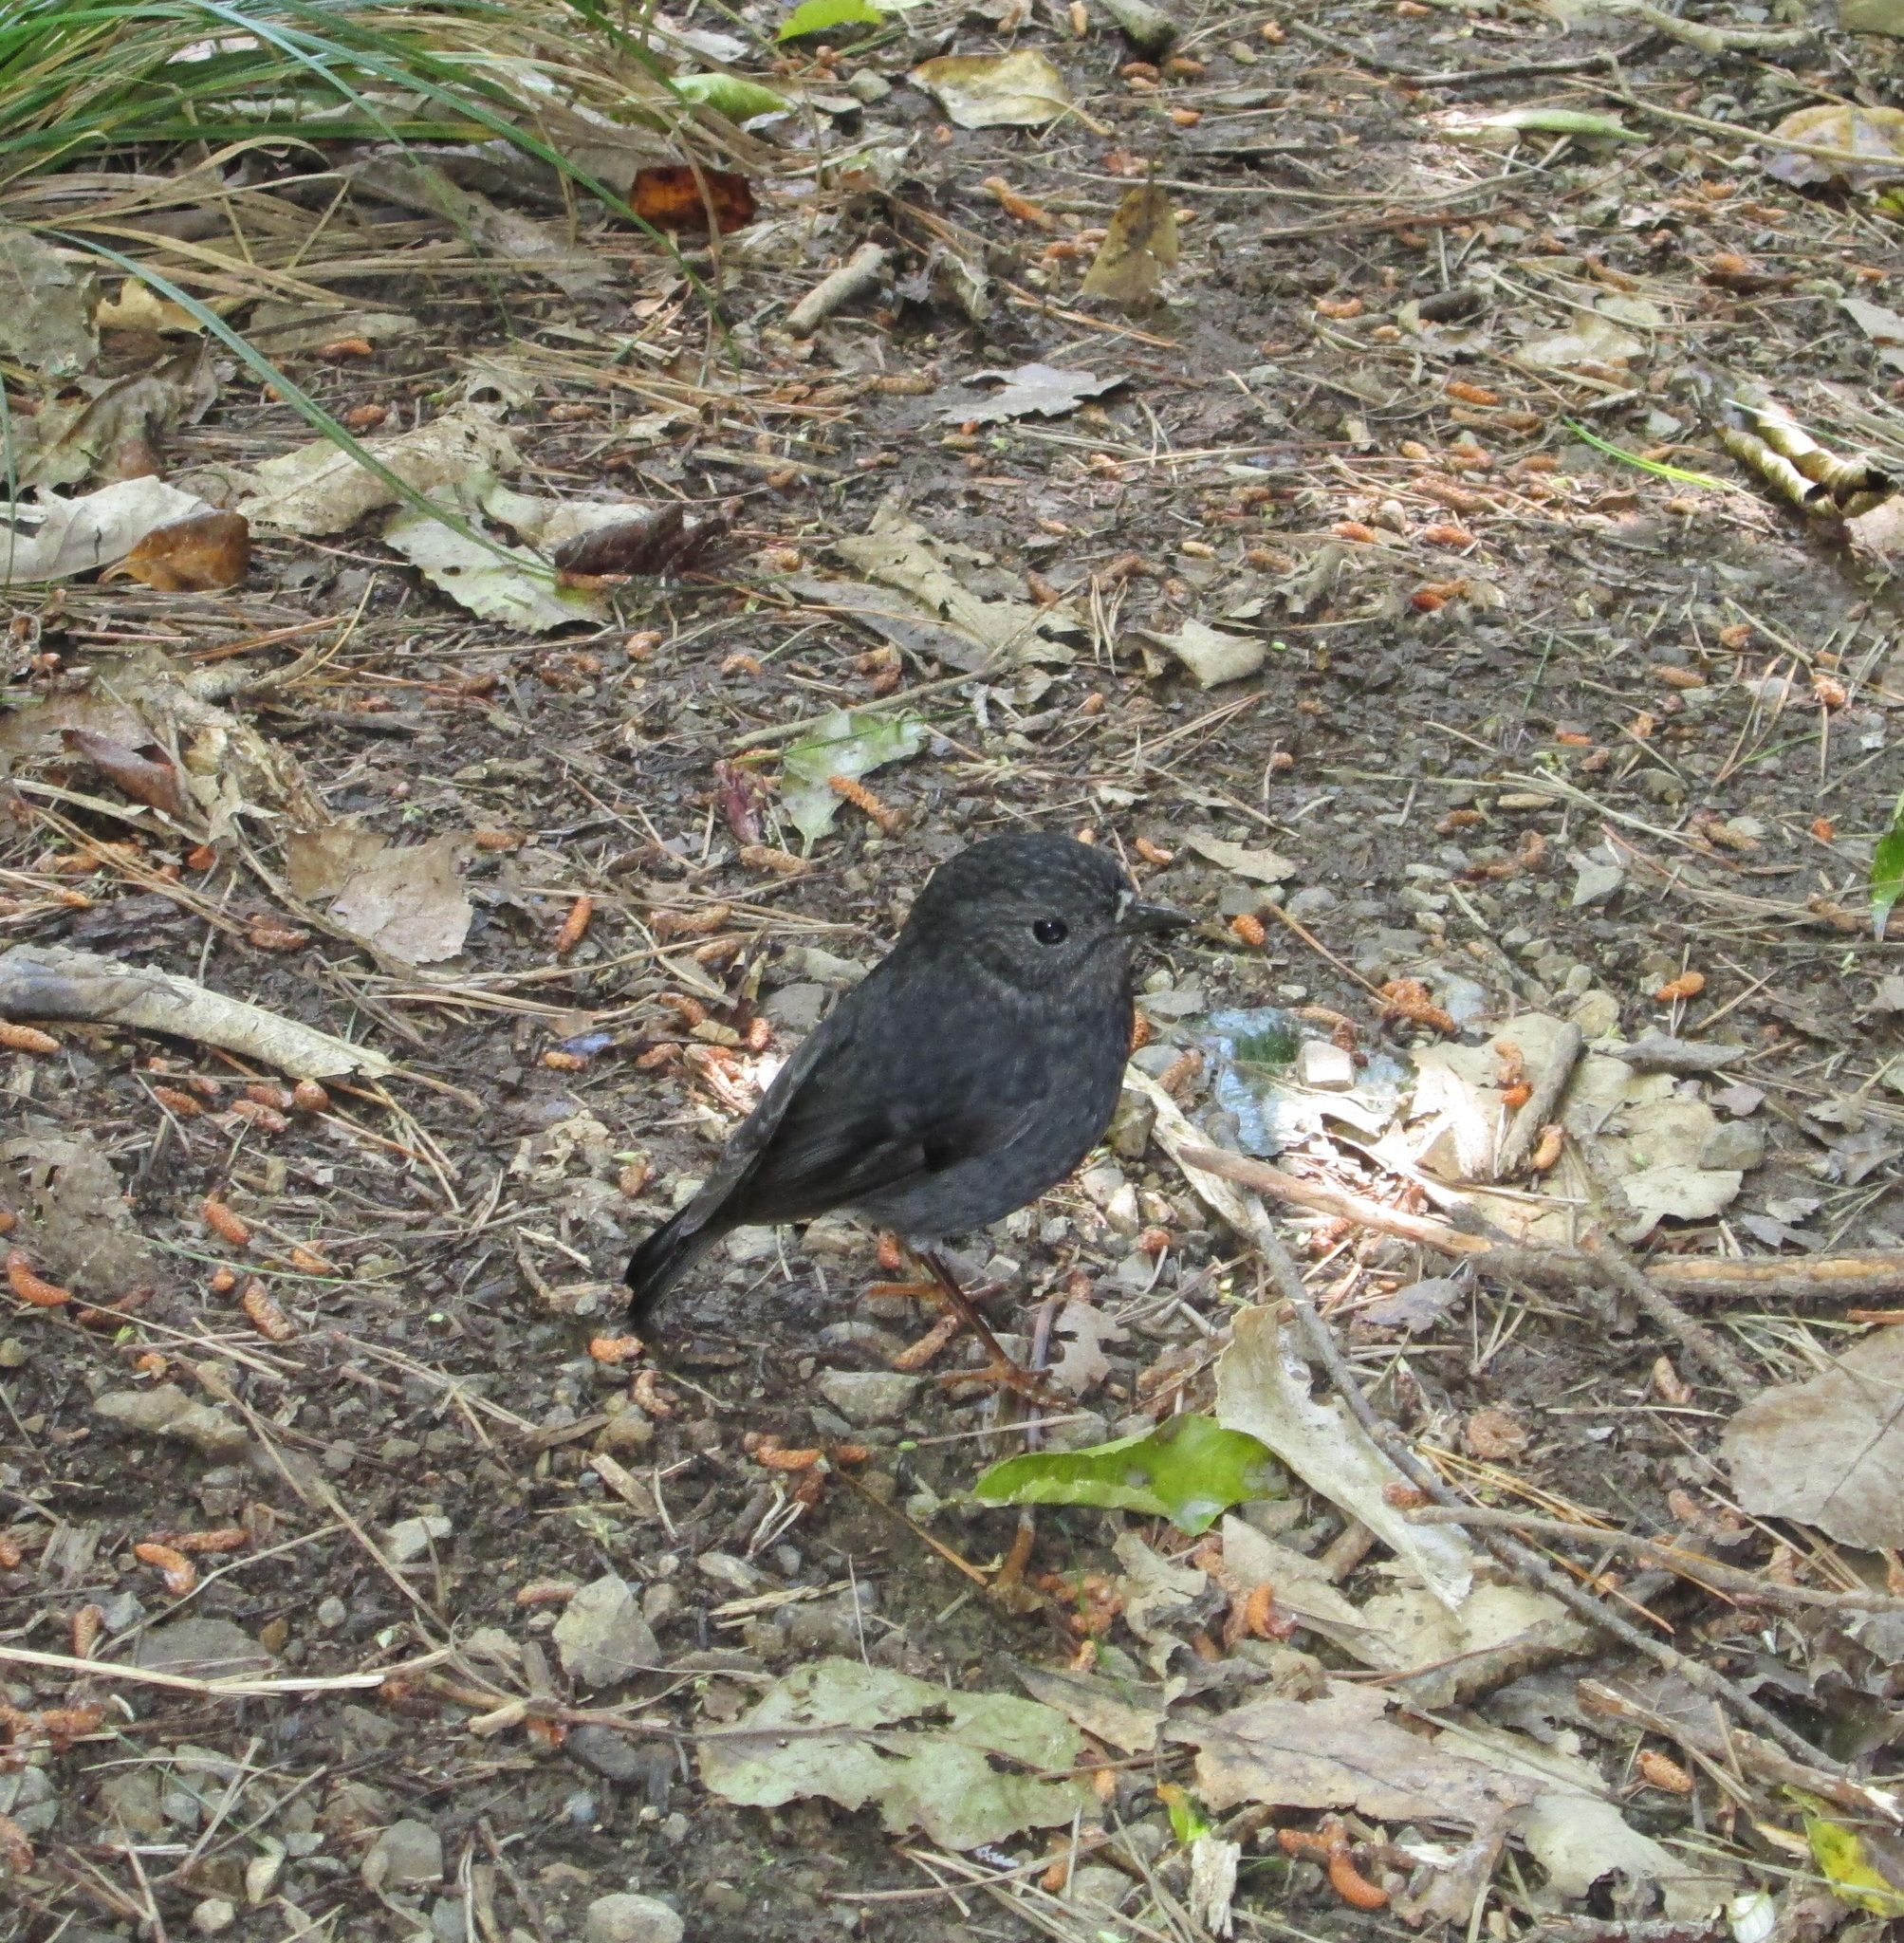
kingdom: Animalia
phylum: Chordata
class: Aves
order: Passeriformes
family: Petroicidae
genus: Petroica
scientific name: Petroica australis
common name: New zealand robin
